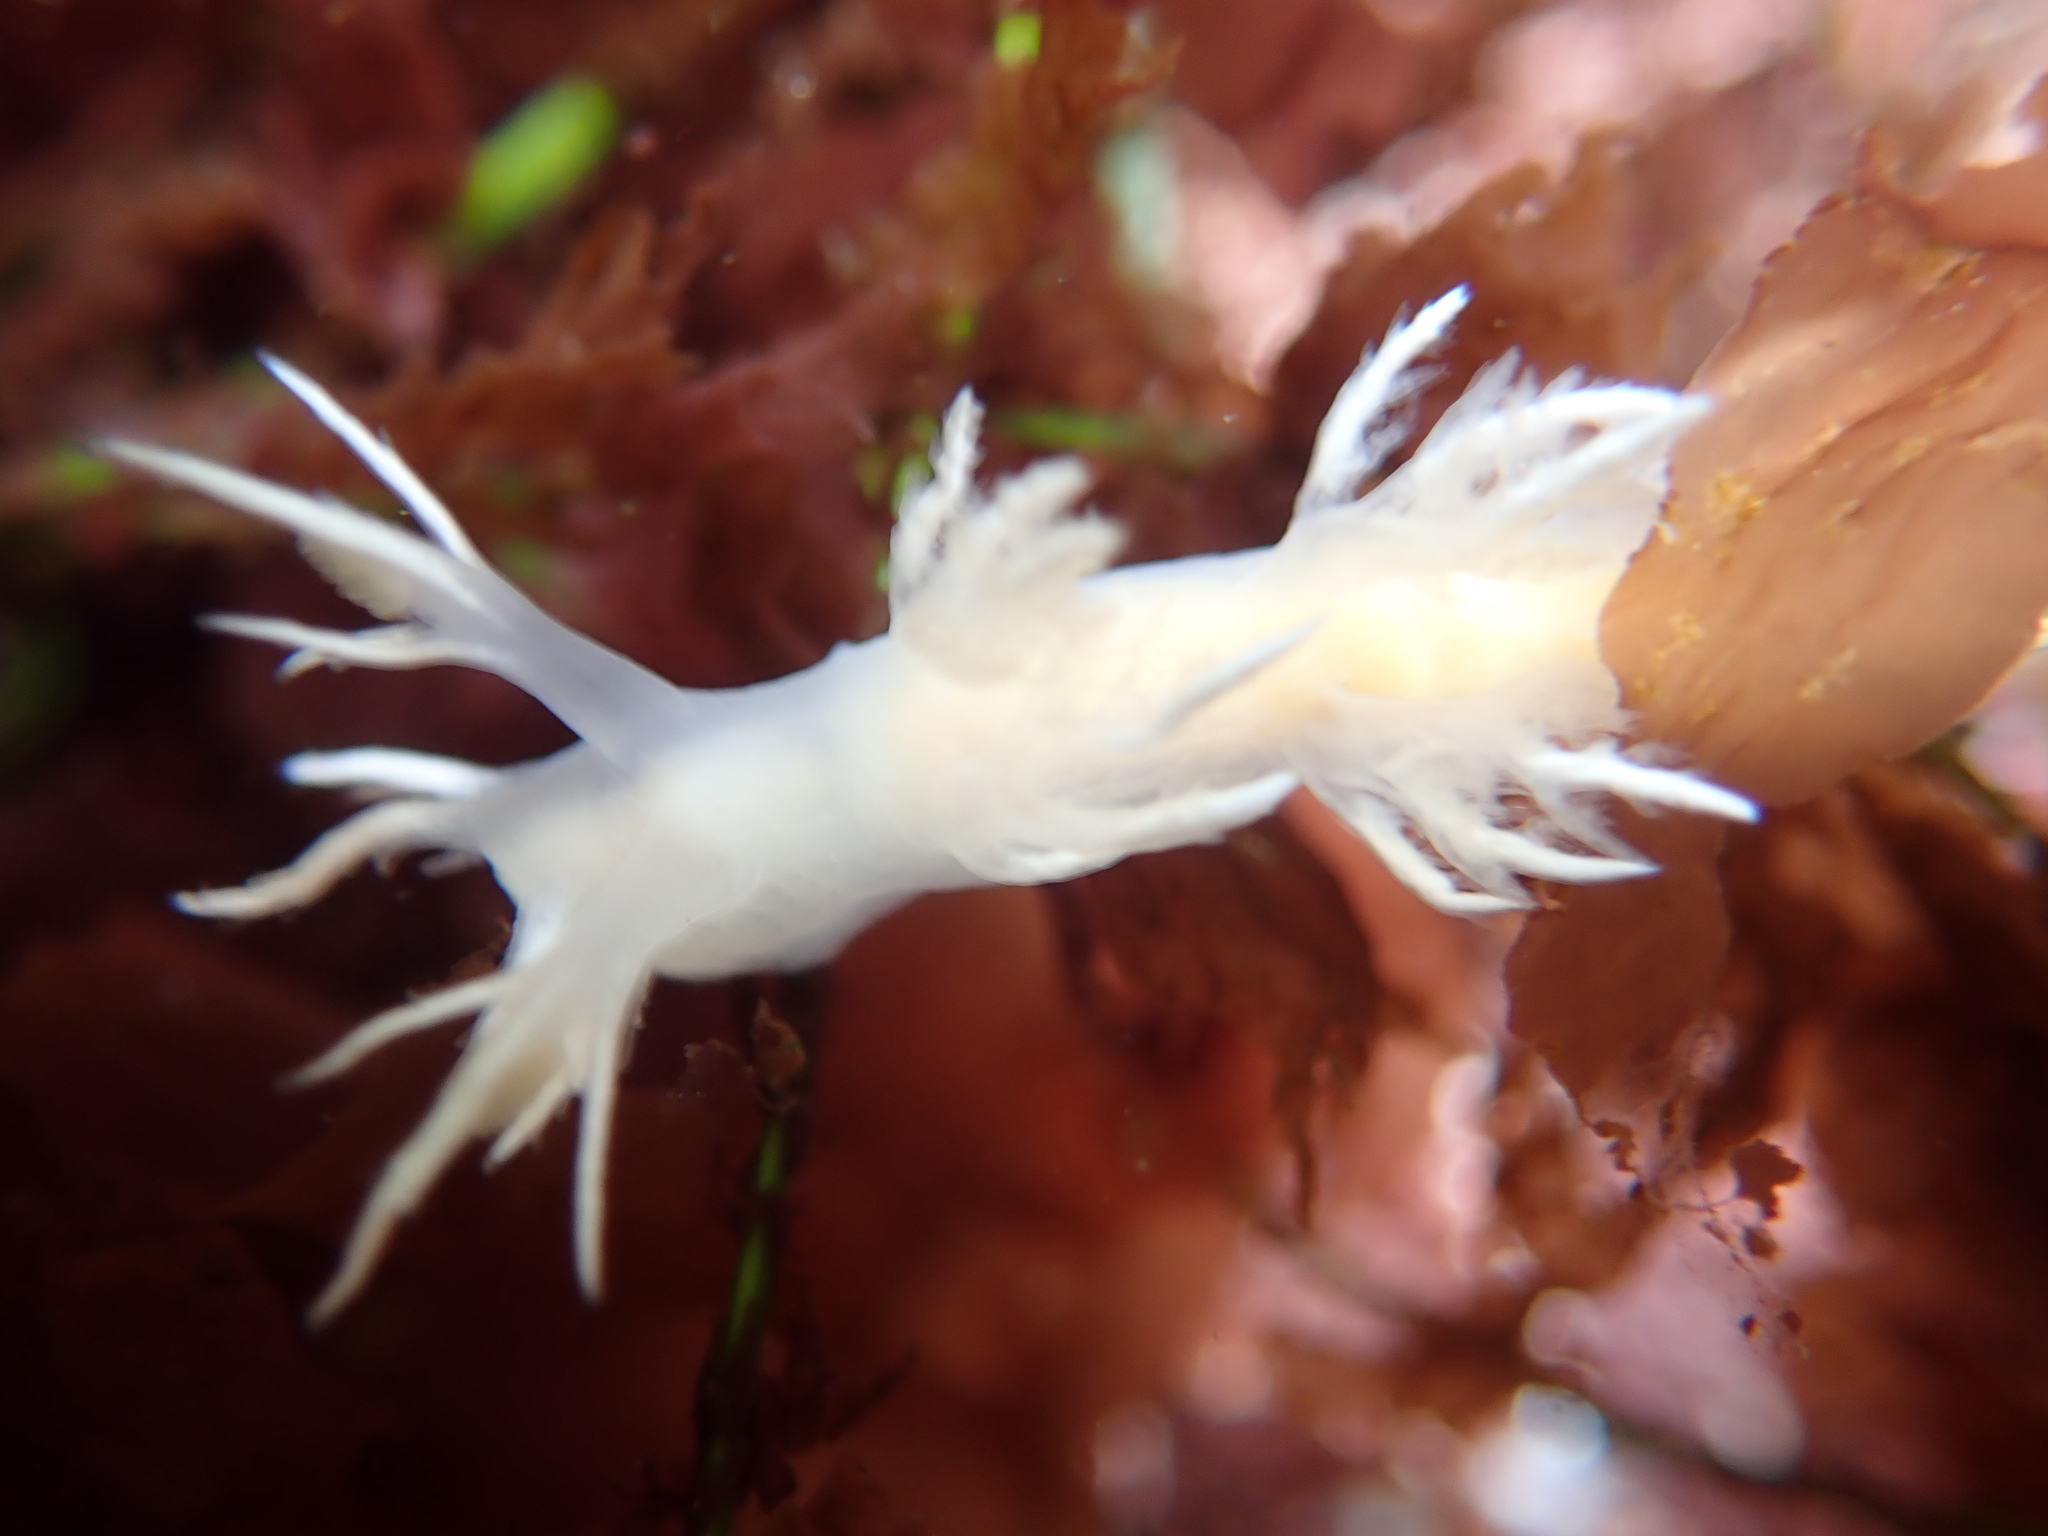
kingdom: Animalia
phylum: Mollusca
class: Gastropoda
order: Nudibranchia
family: Dendronotidae
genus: Dendronotus
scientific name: Dendronotus albus
